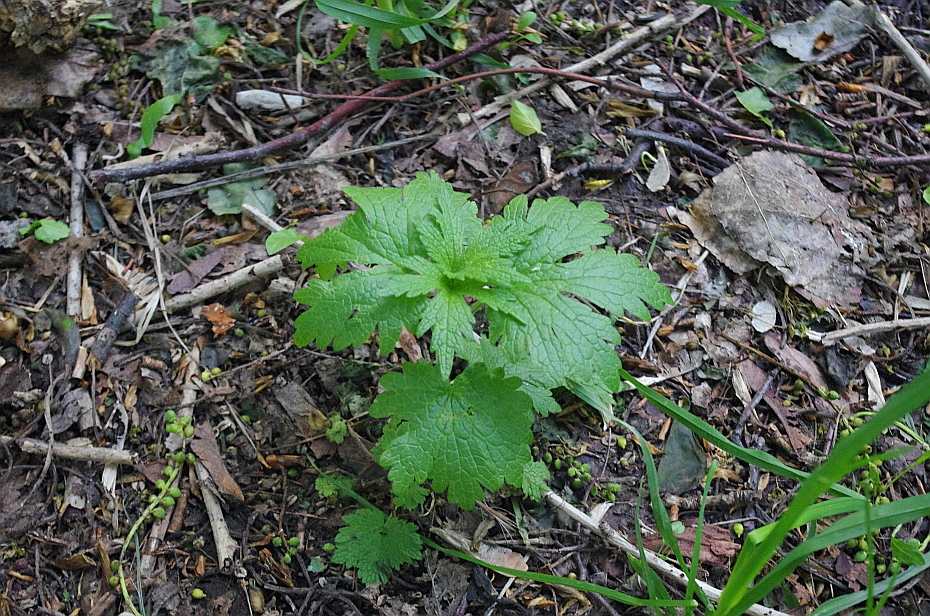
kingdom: Plantae
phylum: Tracheophyta
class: Magnoliopsida
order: Lamiales
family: Lamiaceae
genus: Leonurus
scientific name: Leonurus quinquelobatus
